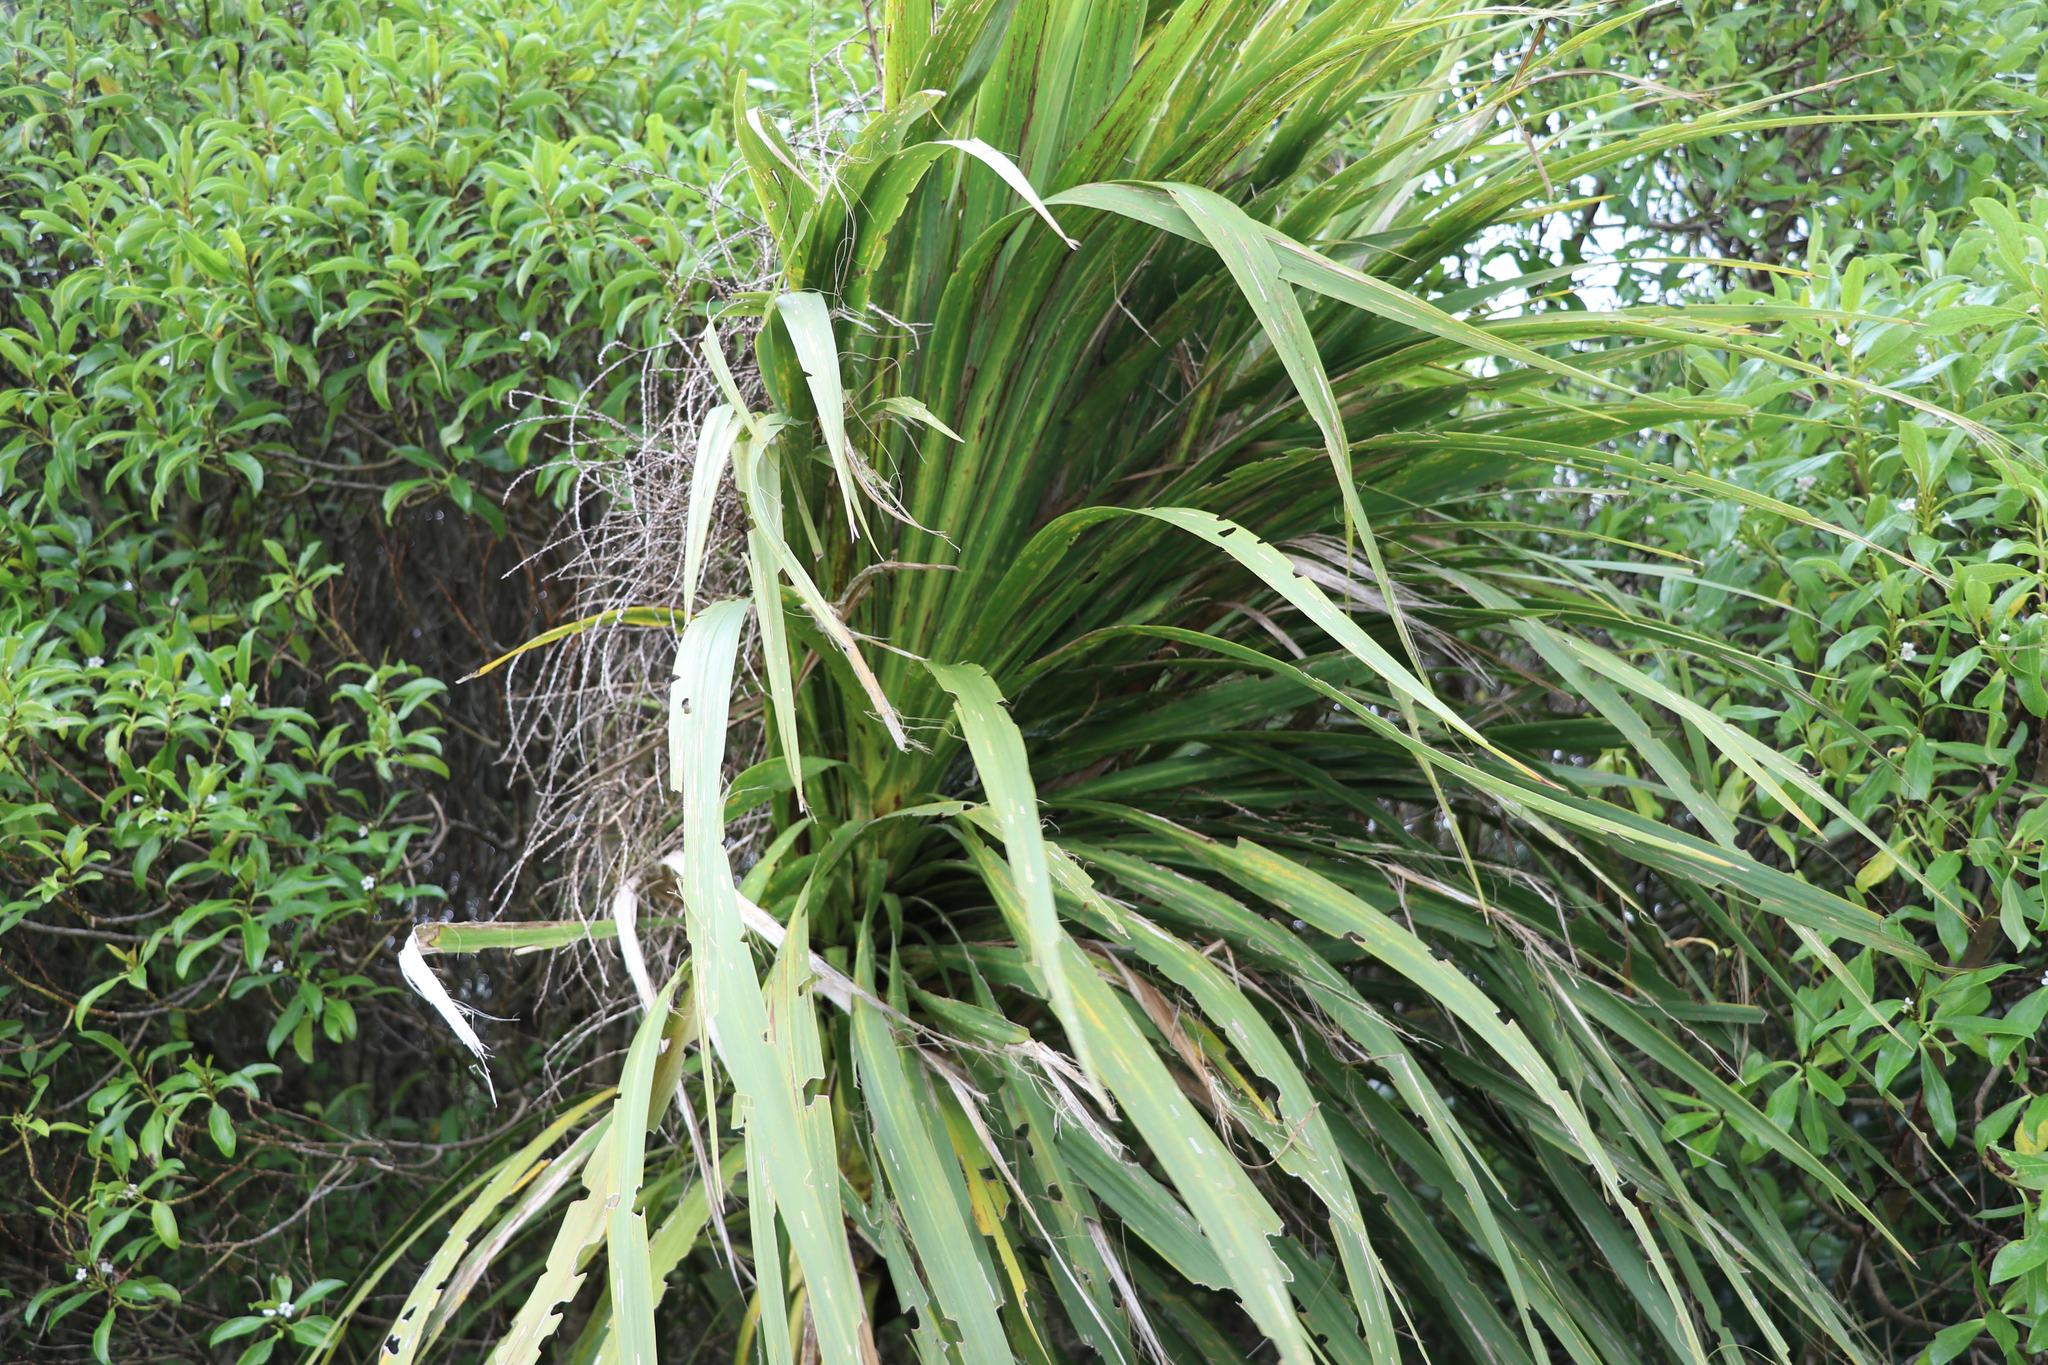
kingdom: Plantae
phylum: Tracheophyta
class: Liliopsida
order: Asparagales
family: Asparagaceae
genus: Cordyline
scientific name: Cordyline australis
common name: Cabbage-palm
